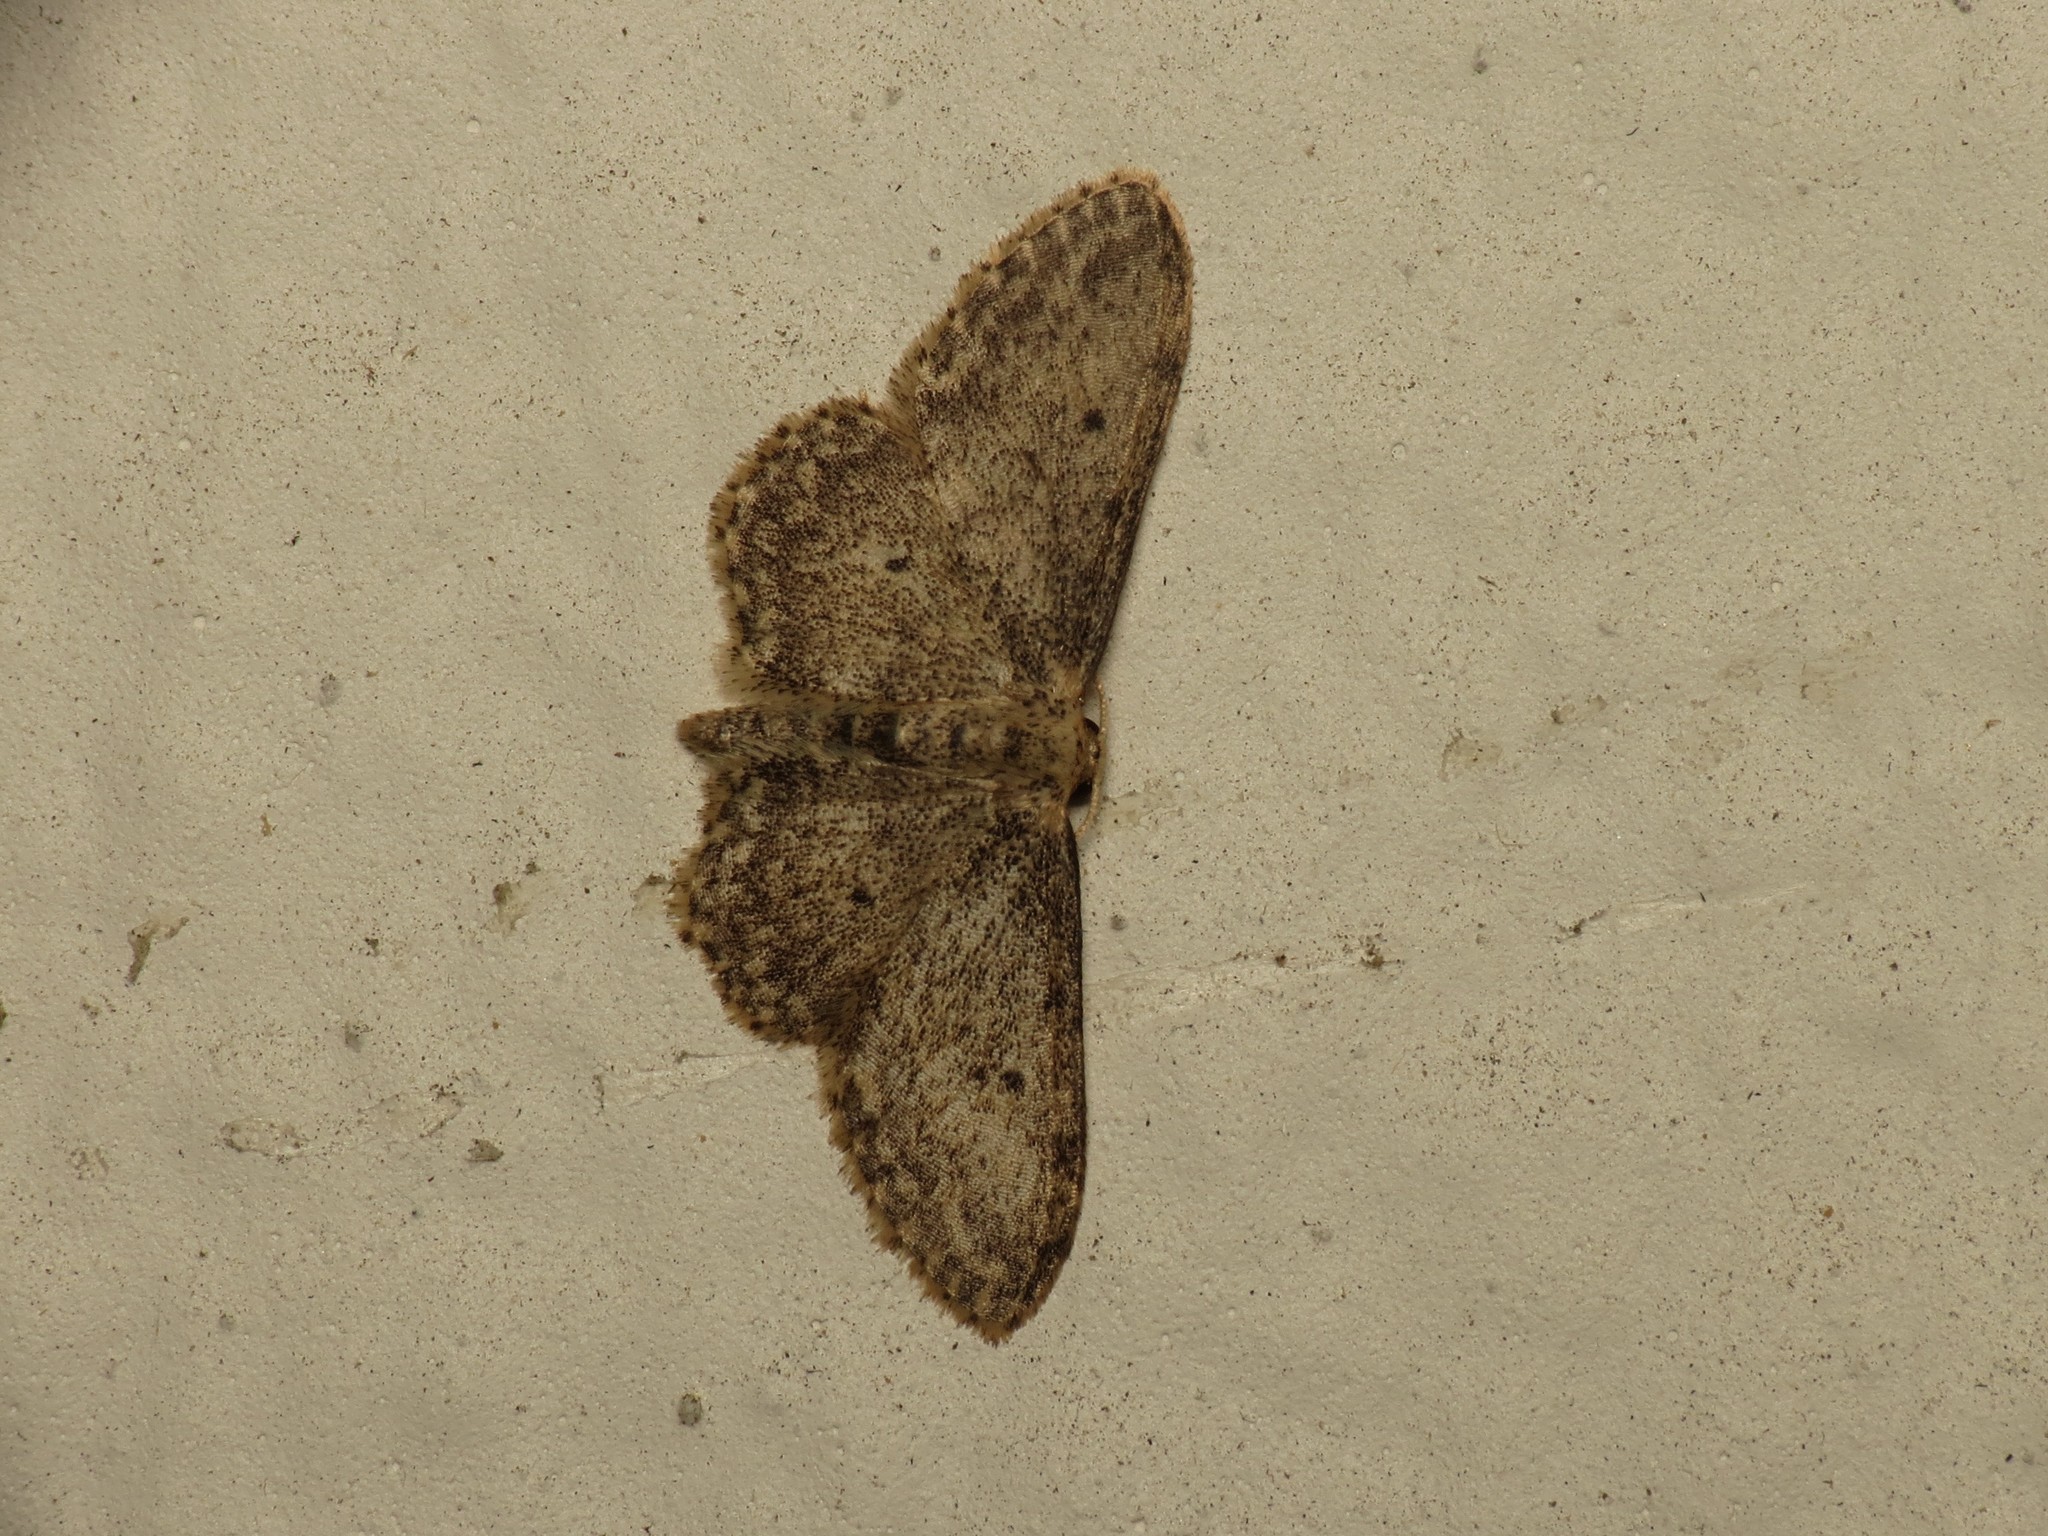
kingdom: Animalia
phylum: Arthropoda
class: Insecta
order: Lepidoptera
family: Geometridae
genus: Idaea
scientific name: Idaea seriata
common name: Small dusty wave
